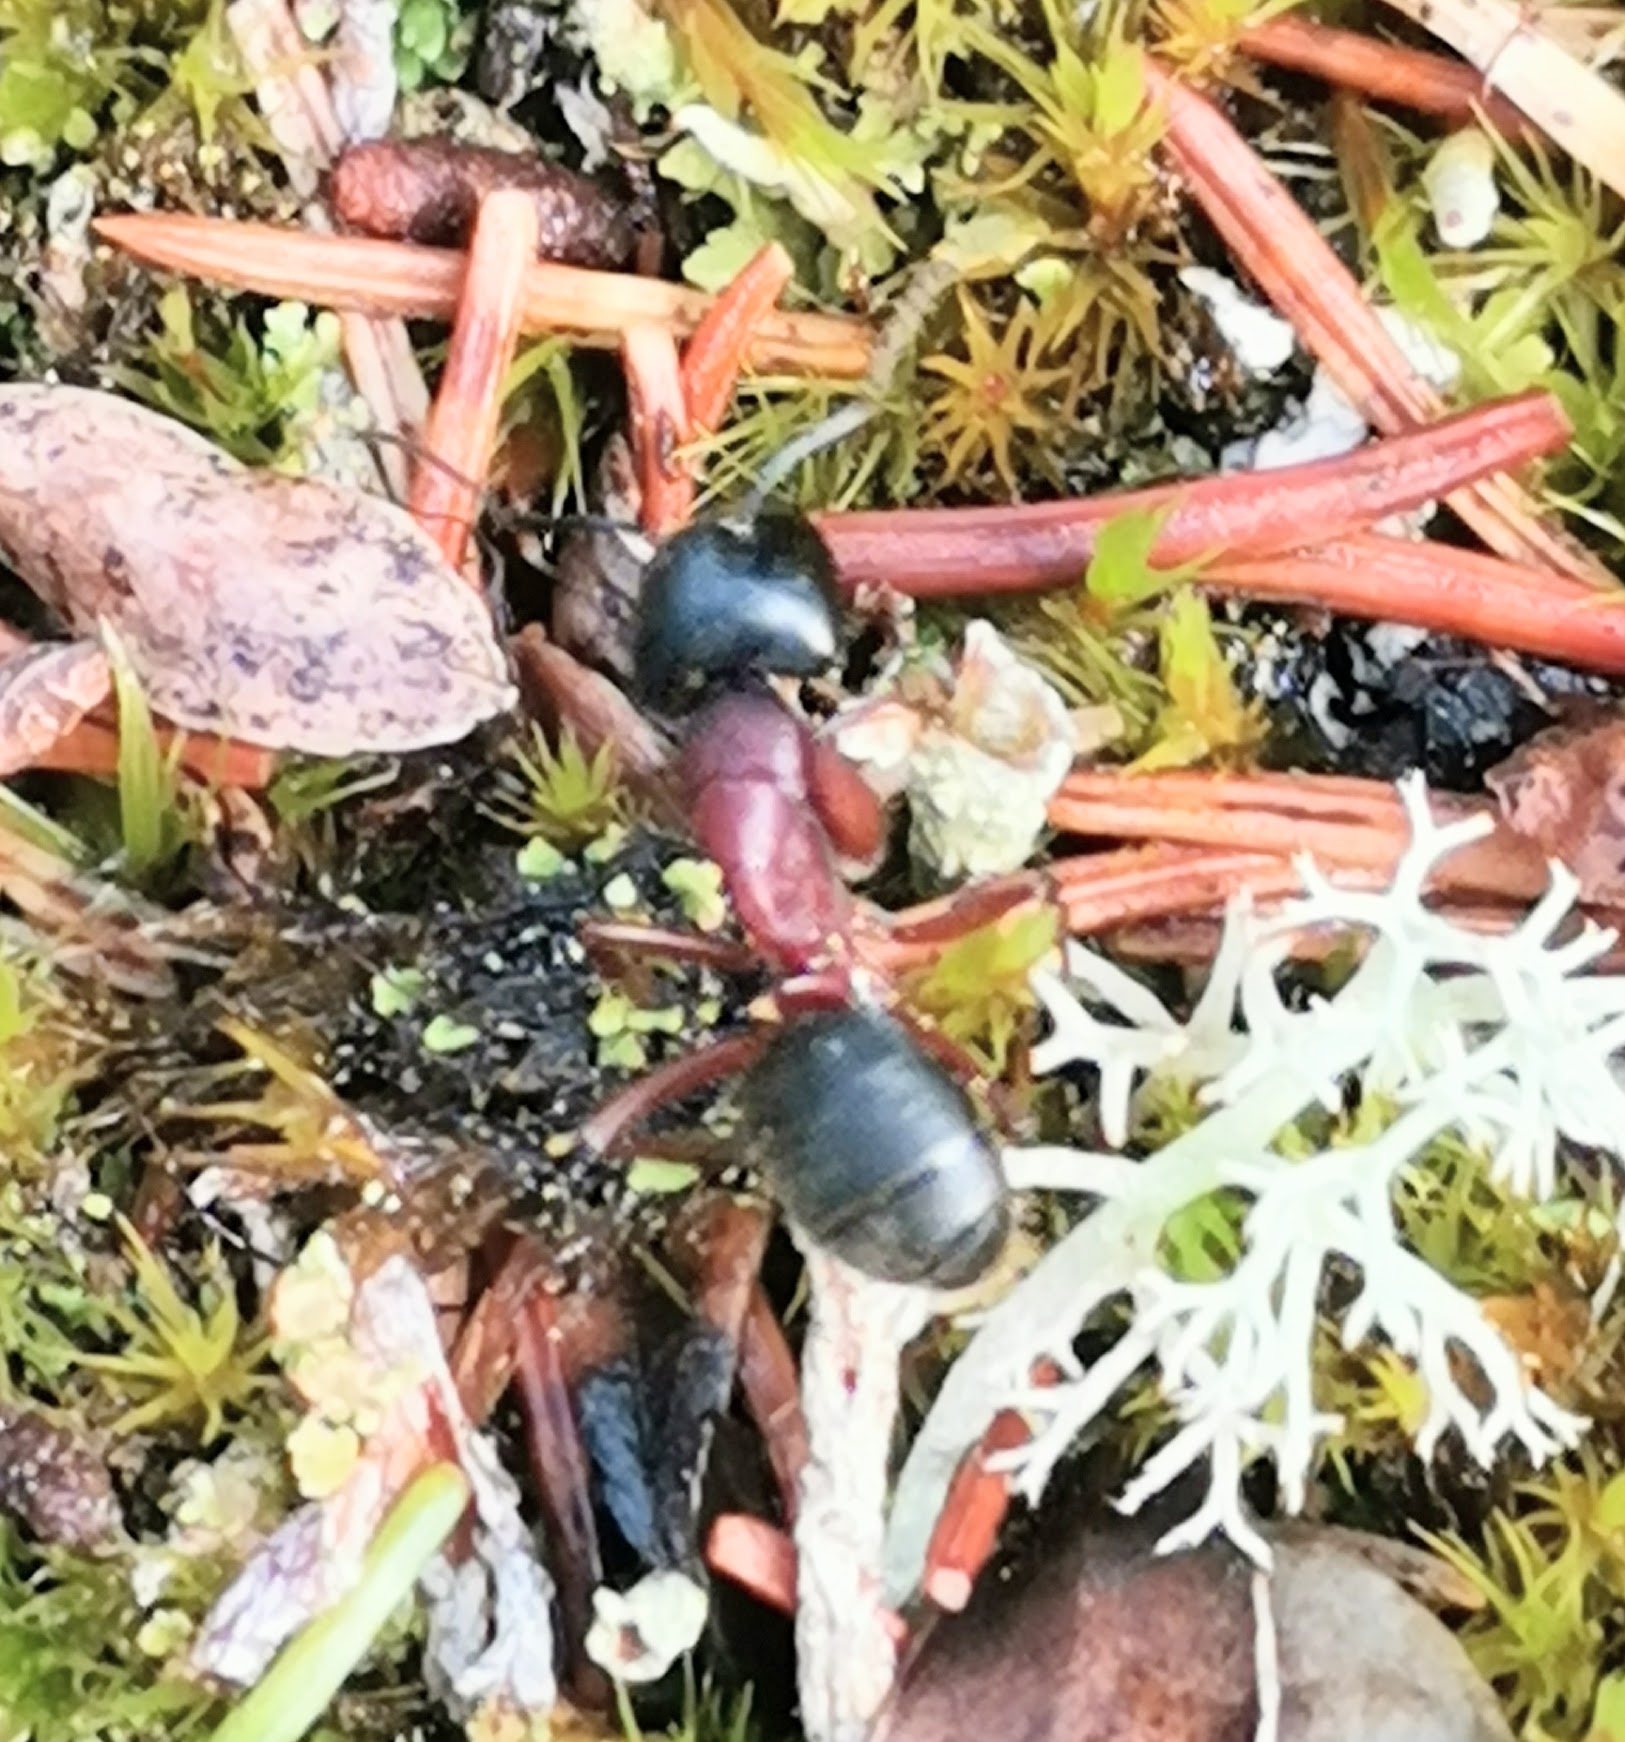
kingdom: Animalia
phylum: Arthropoda
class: Insecta
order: Hymenoptera
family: Formicidae
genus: Camponotus
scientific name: Camponotus herculeanus
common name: Hercules ant
